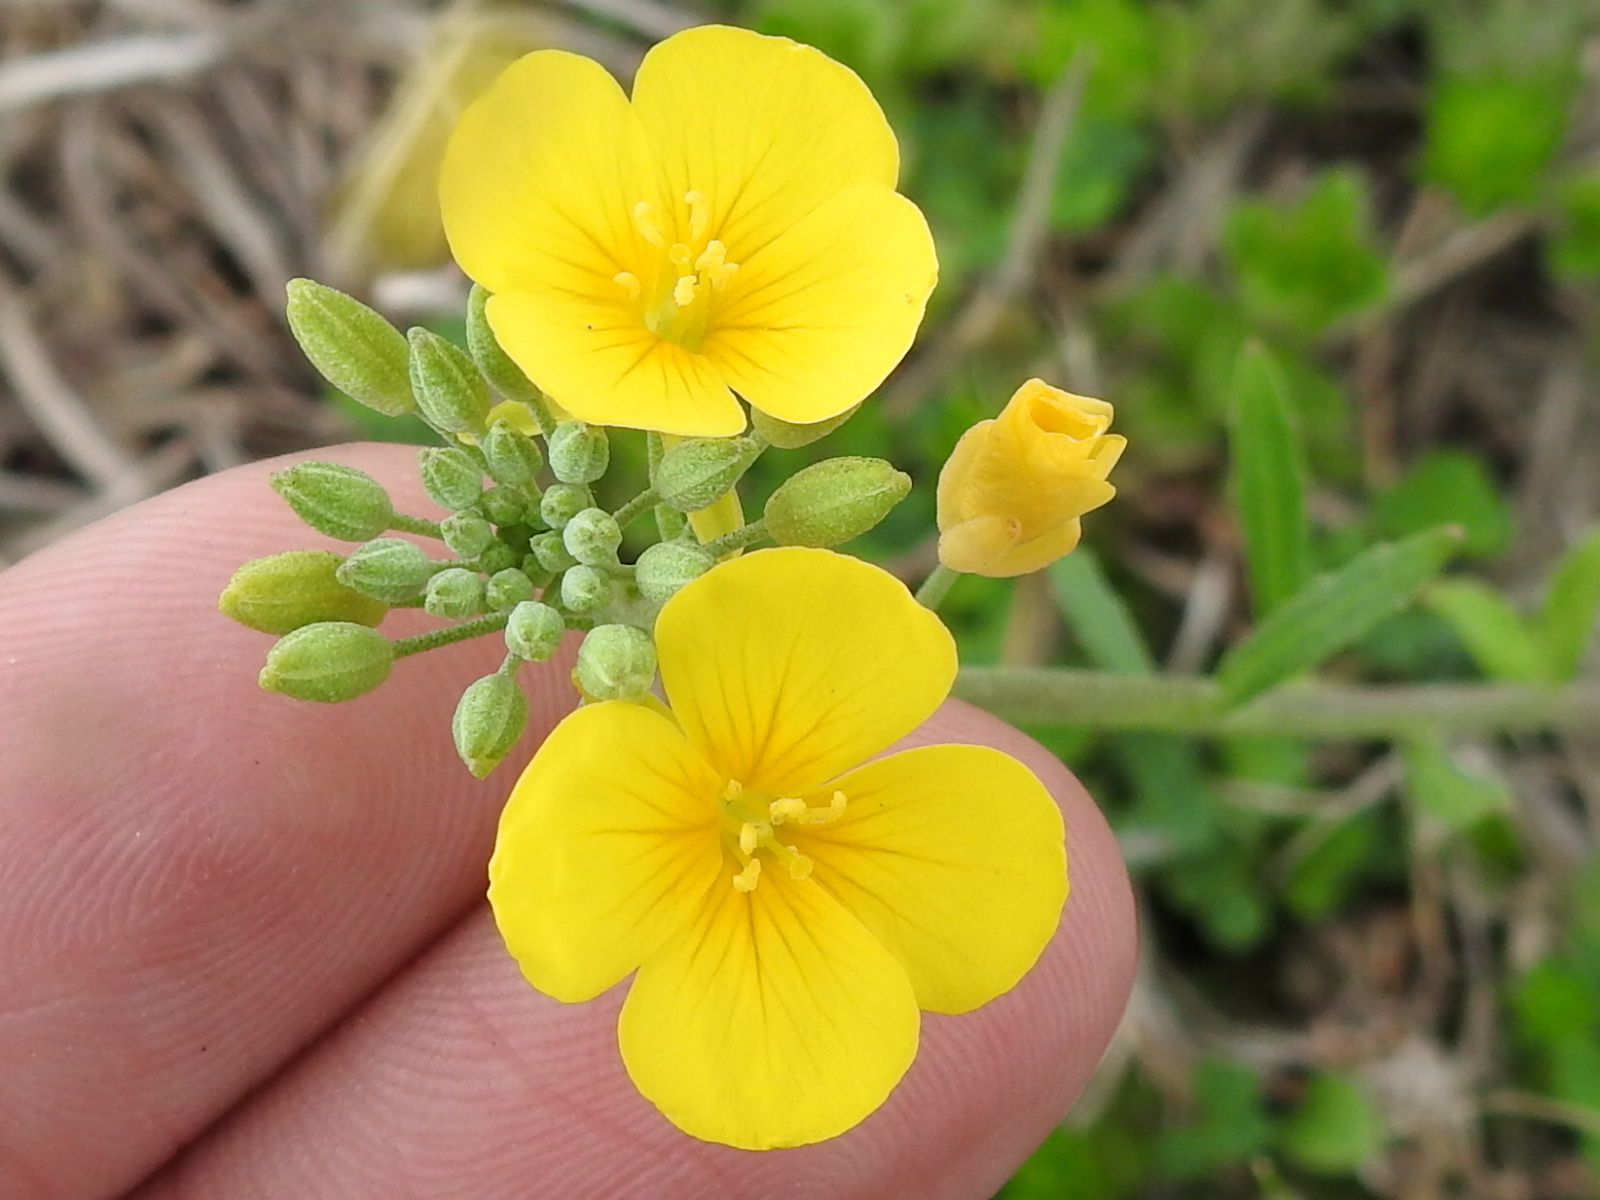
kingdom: Plantae
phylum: Tracheophyta
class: Magnoliopsida
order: Brassicales
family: Brassicaceae
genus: Physaria
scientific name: Physaria gracilis
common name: Spreading bladderpod
